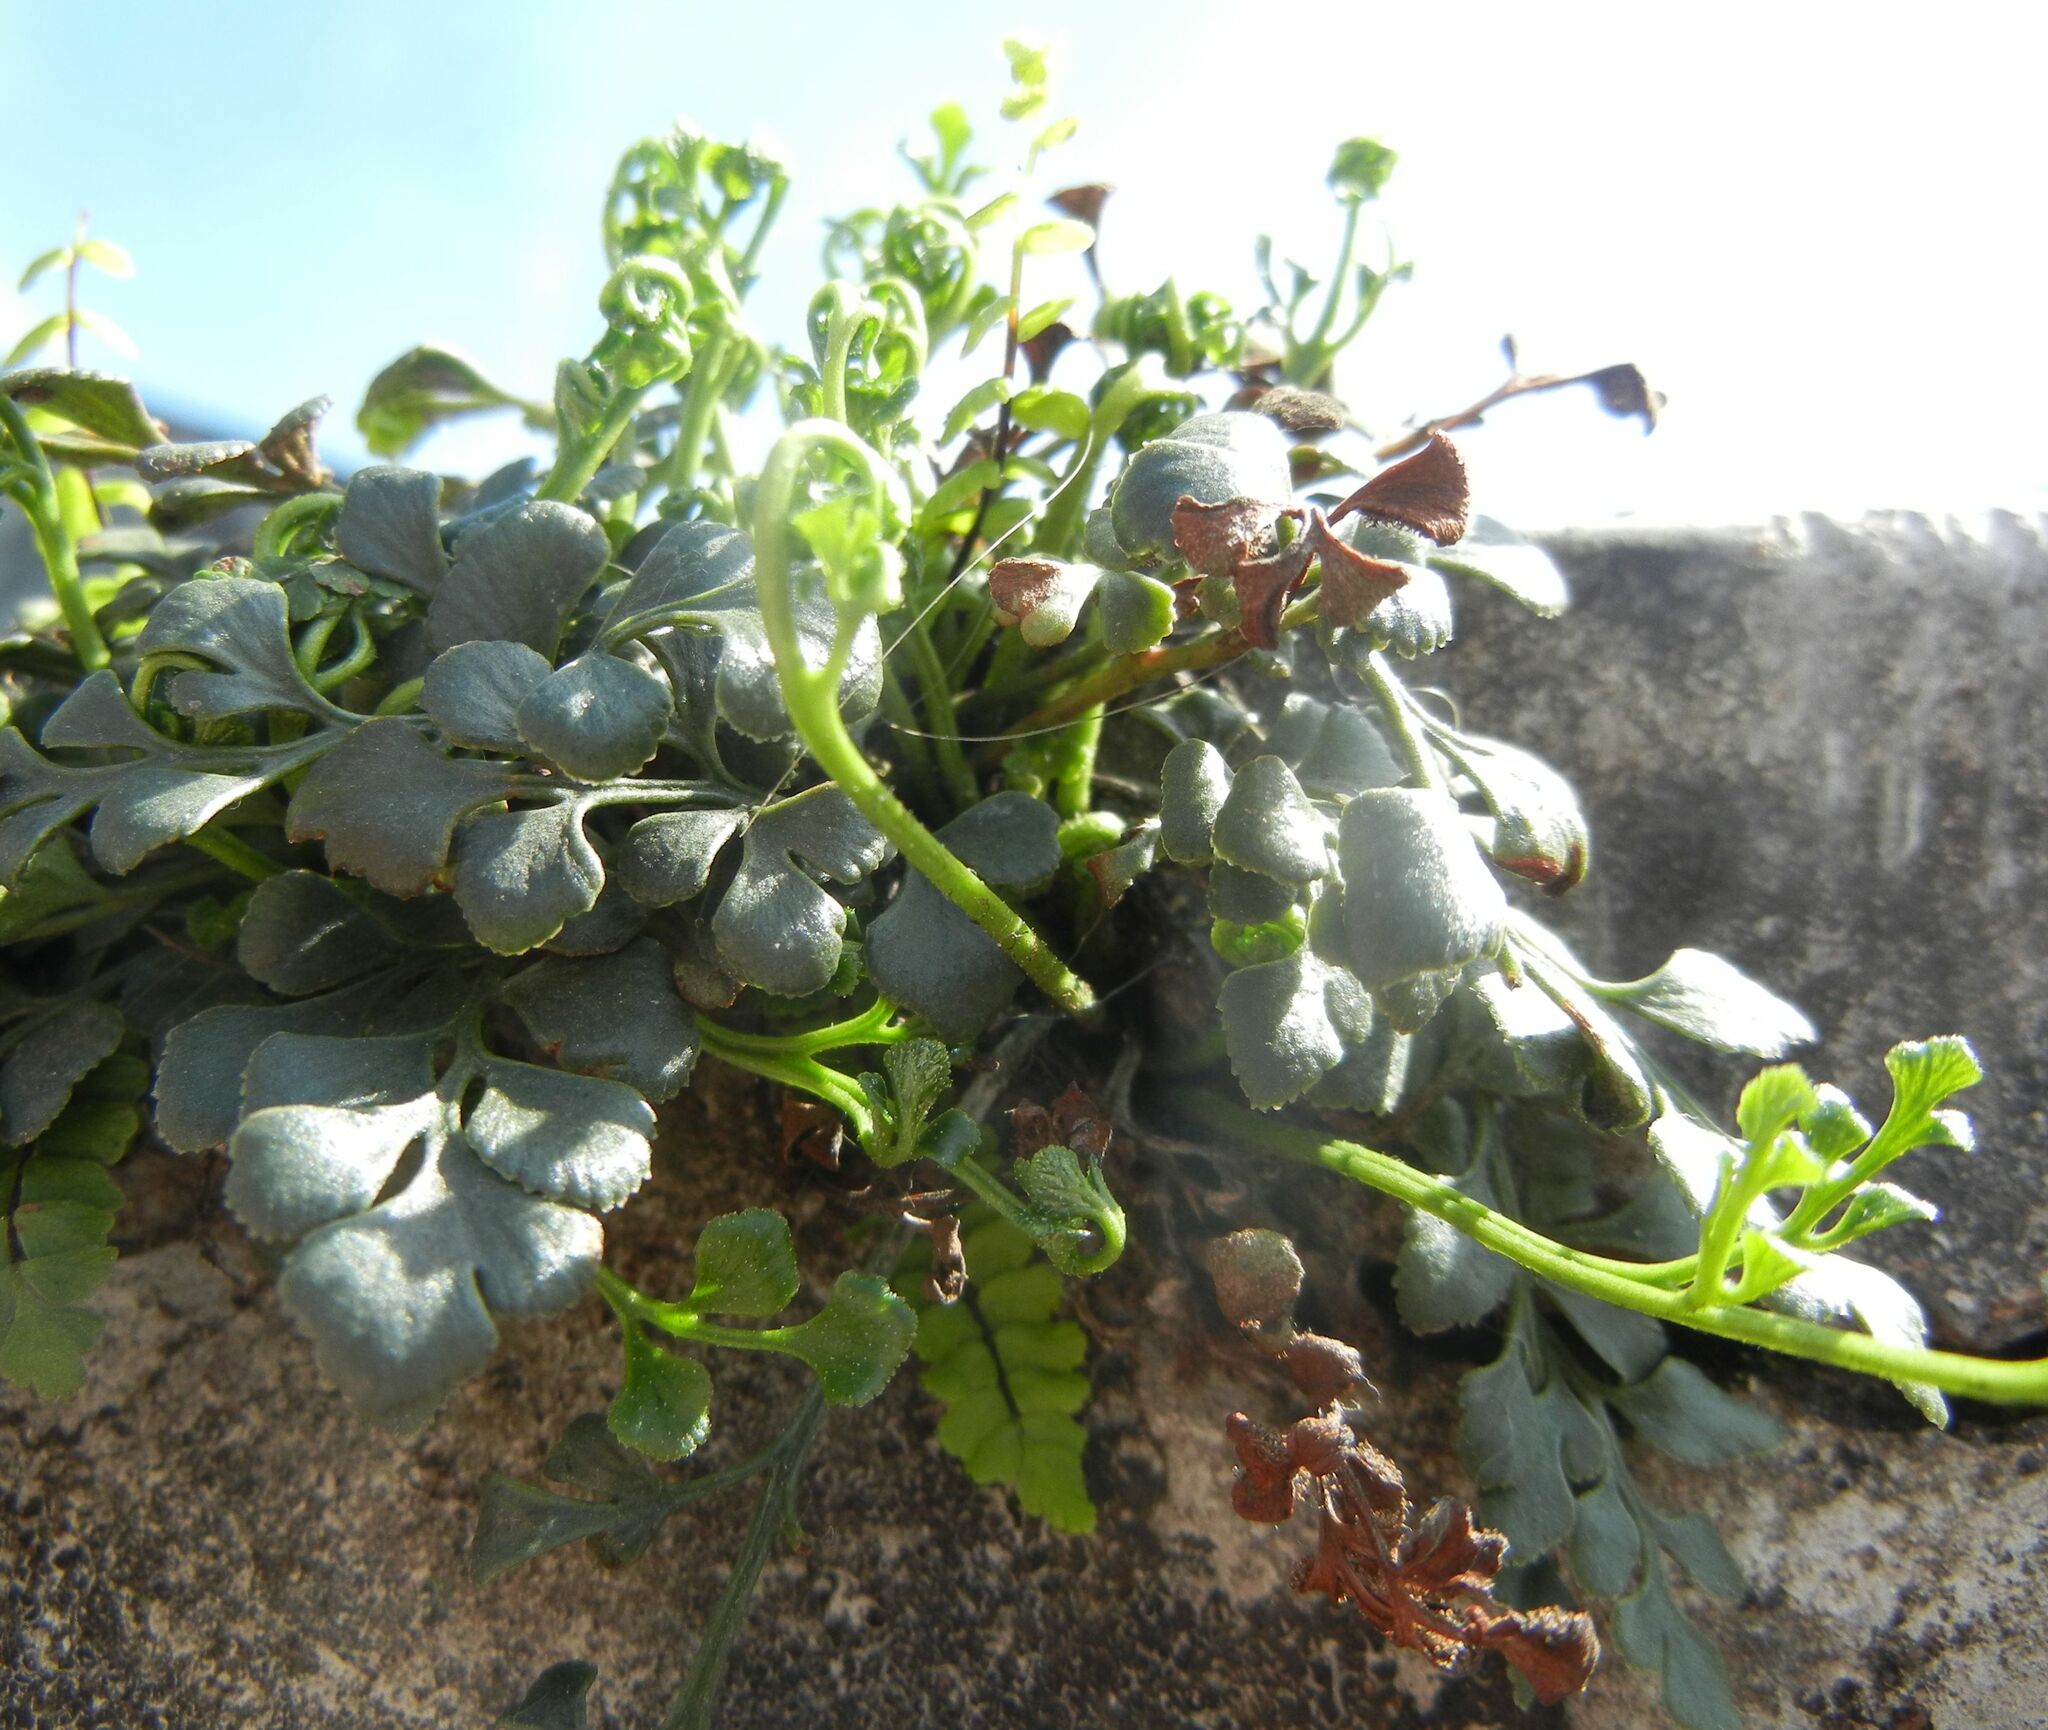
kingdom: Plantae
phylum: Tracheophyta
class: Polypodiopsida
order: Polypodiales
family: Aspleniaceae
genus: Asplenium
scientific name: Asplenium ruta-muraria
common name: Wall-rue
